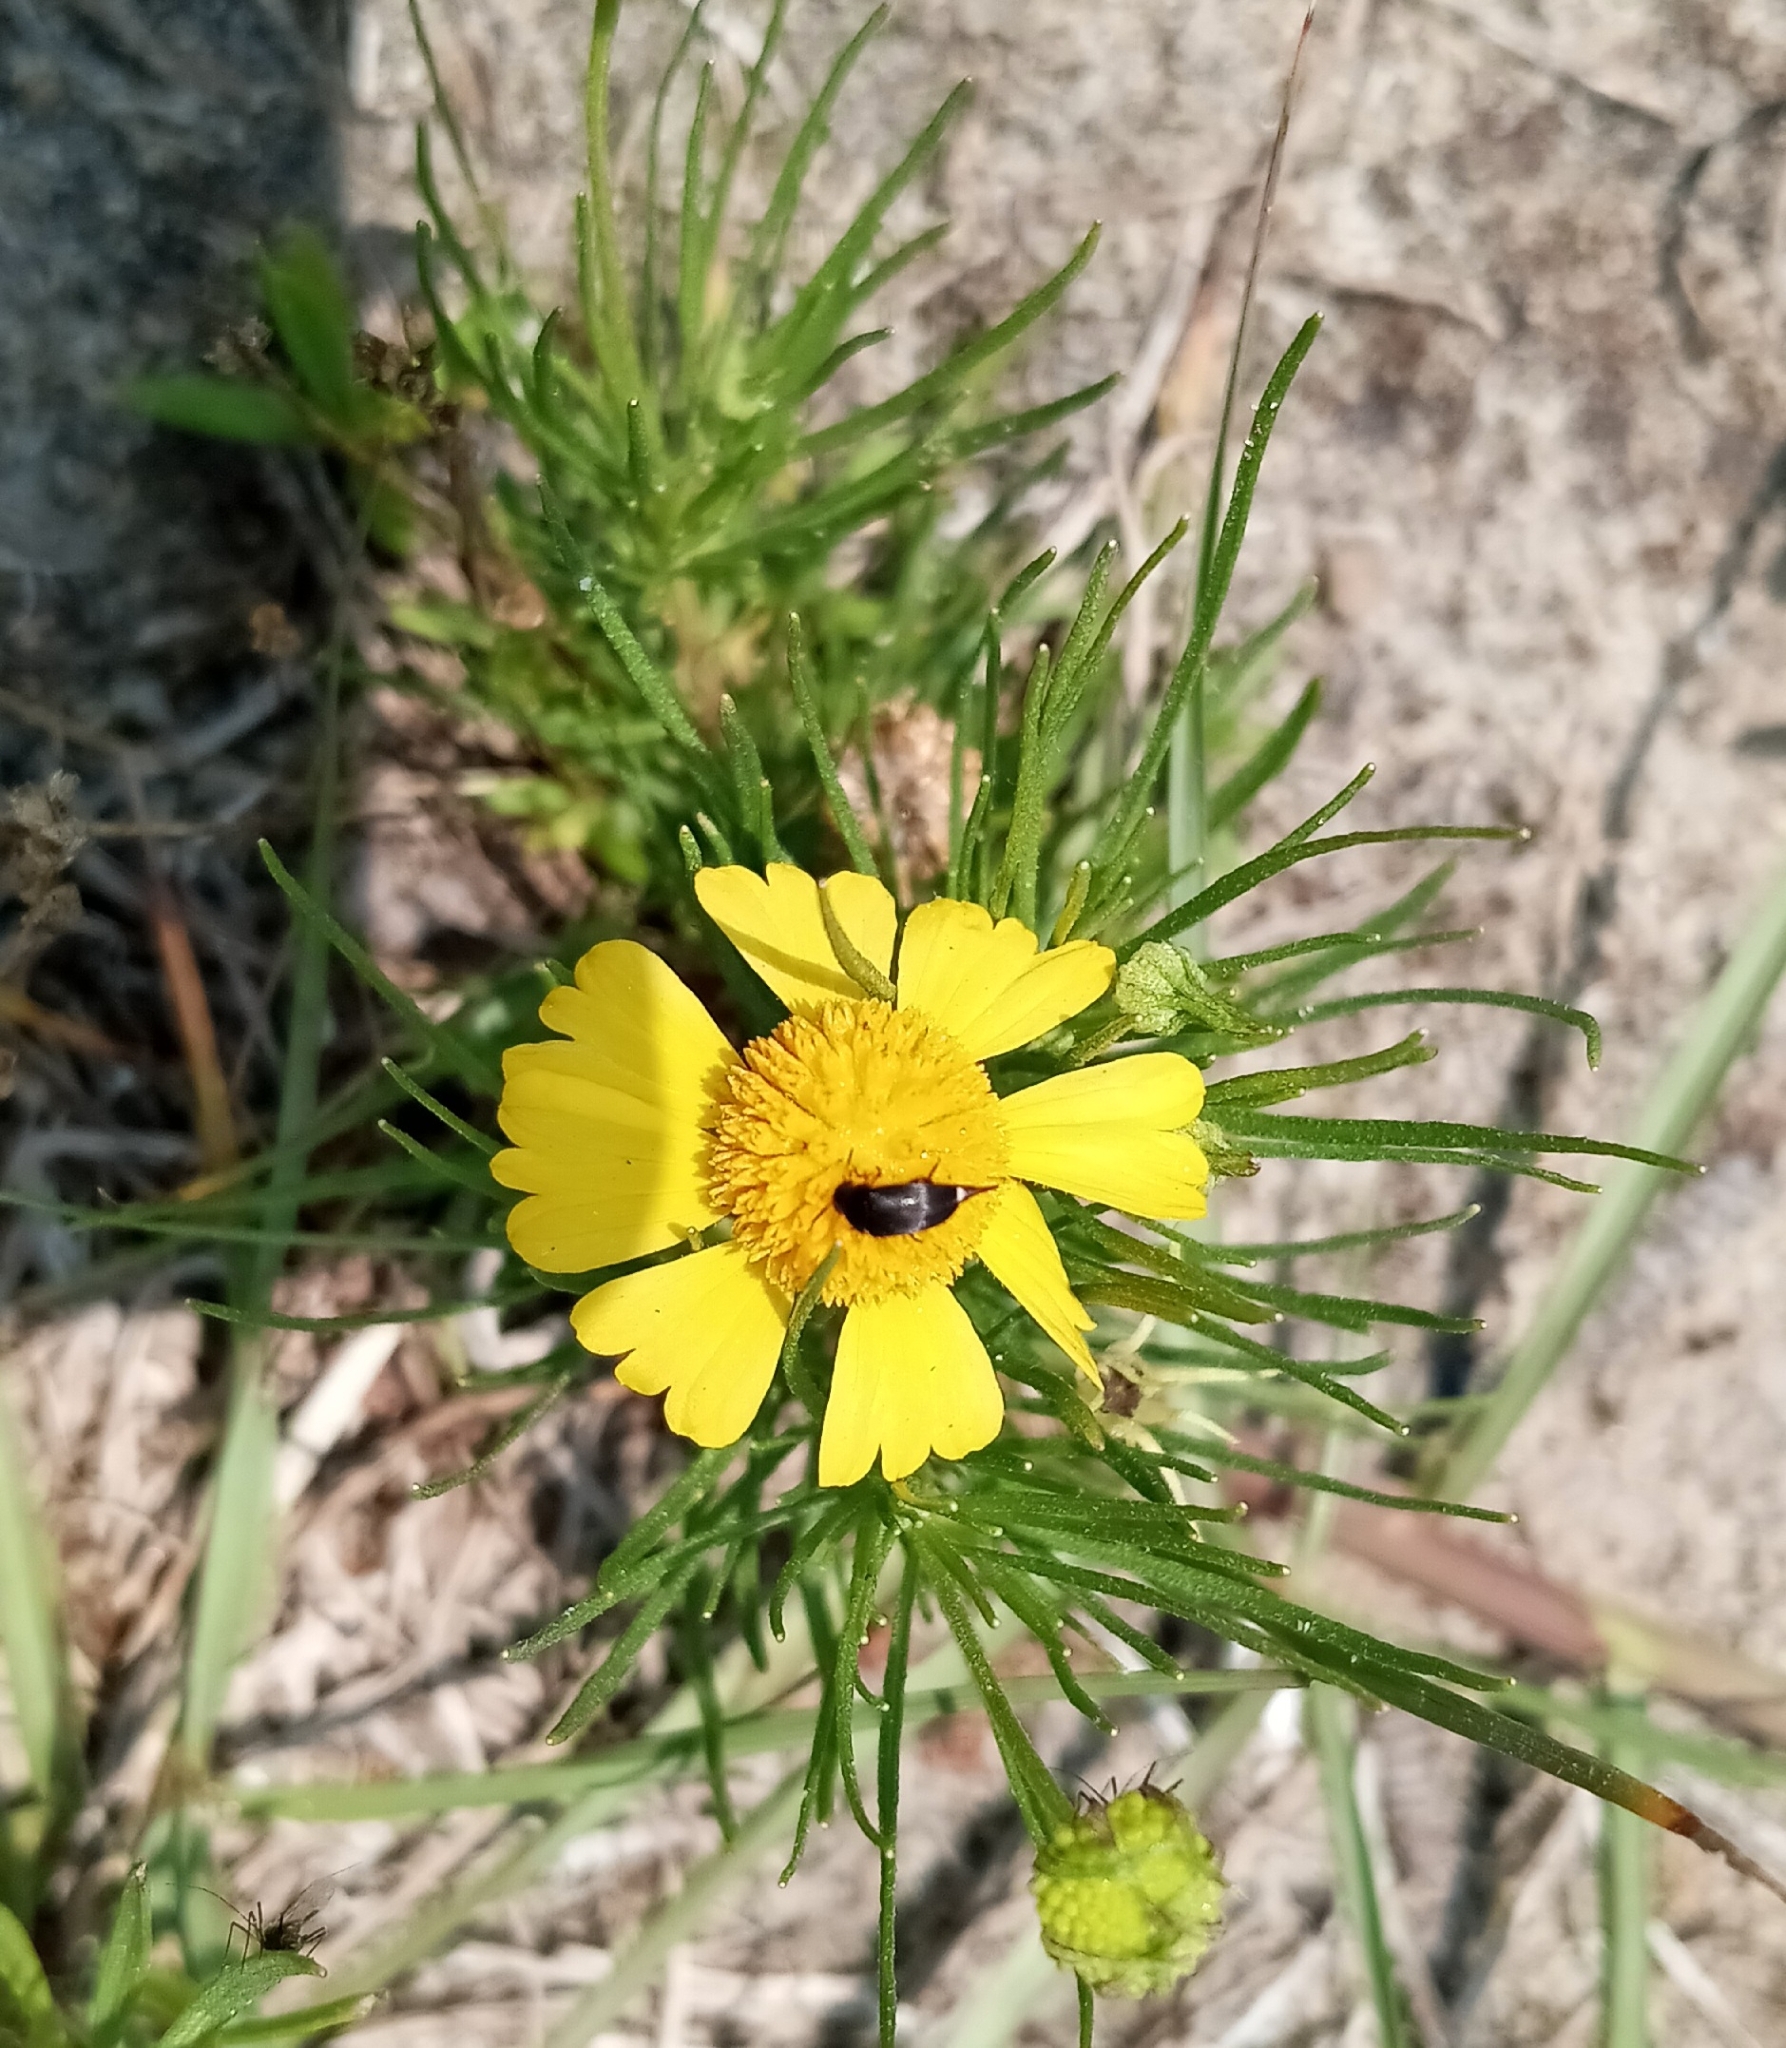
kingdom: Plantae
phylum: Tracheophyta
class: Magnoliopsida
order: Asterales
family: Asteraceae
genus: Helenium
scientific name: Helenium amarum
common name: Bitter sneezeweed
